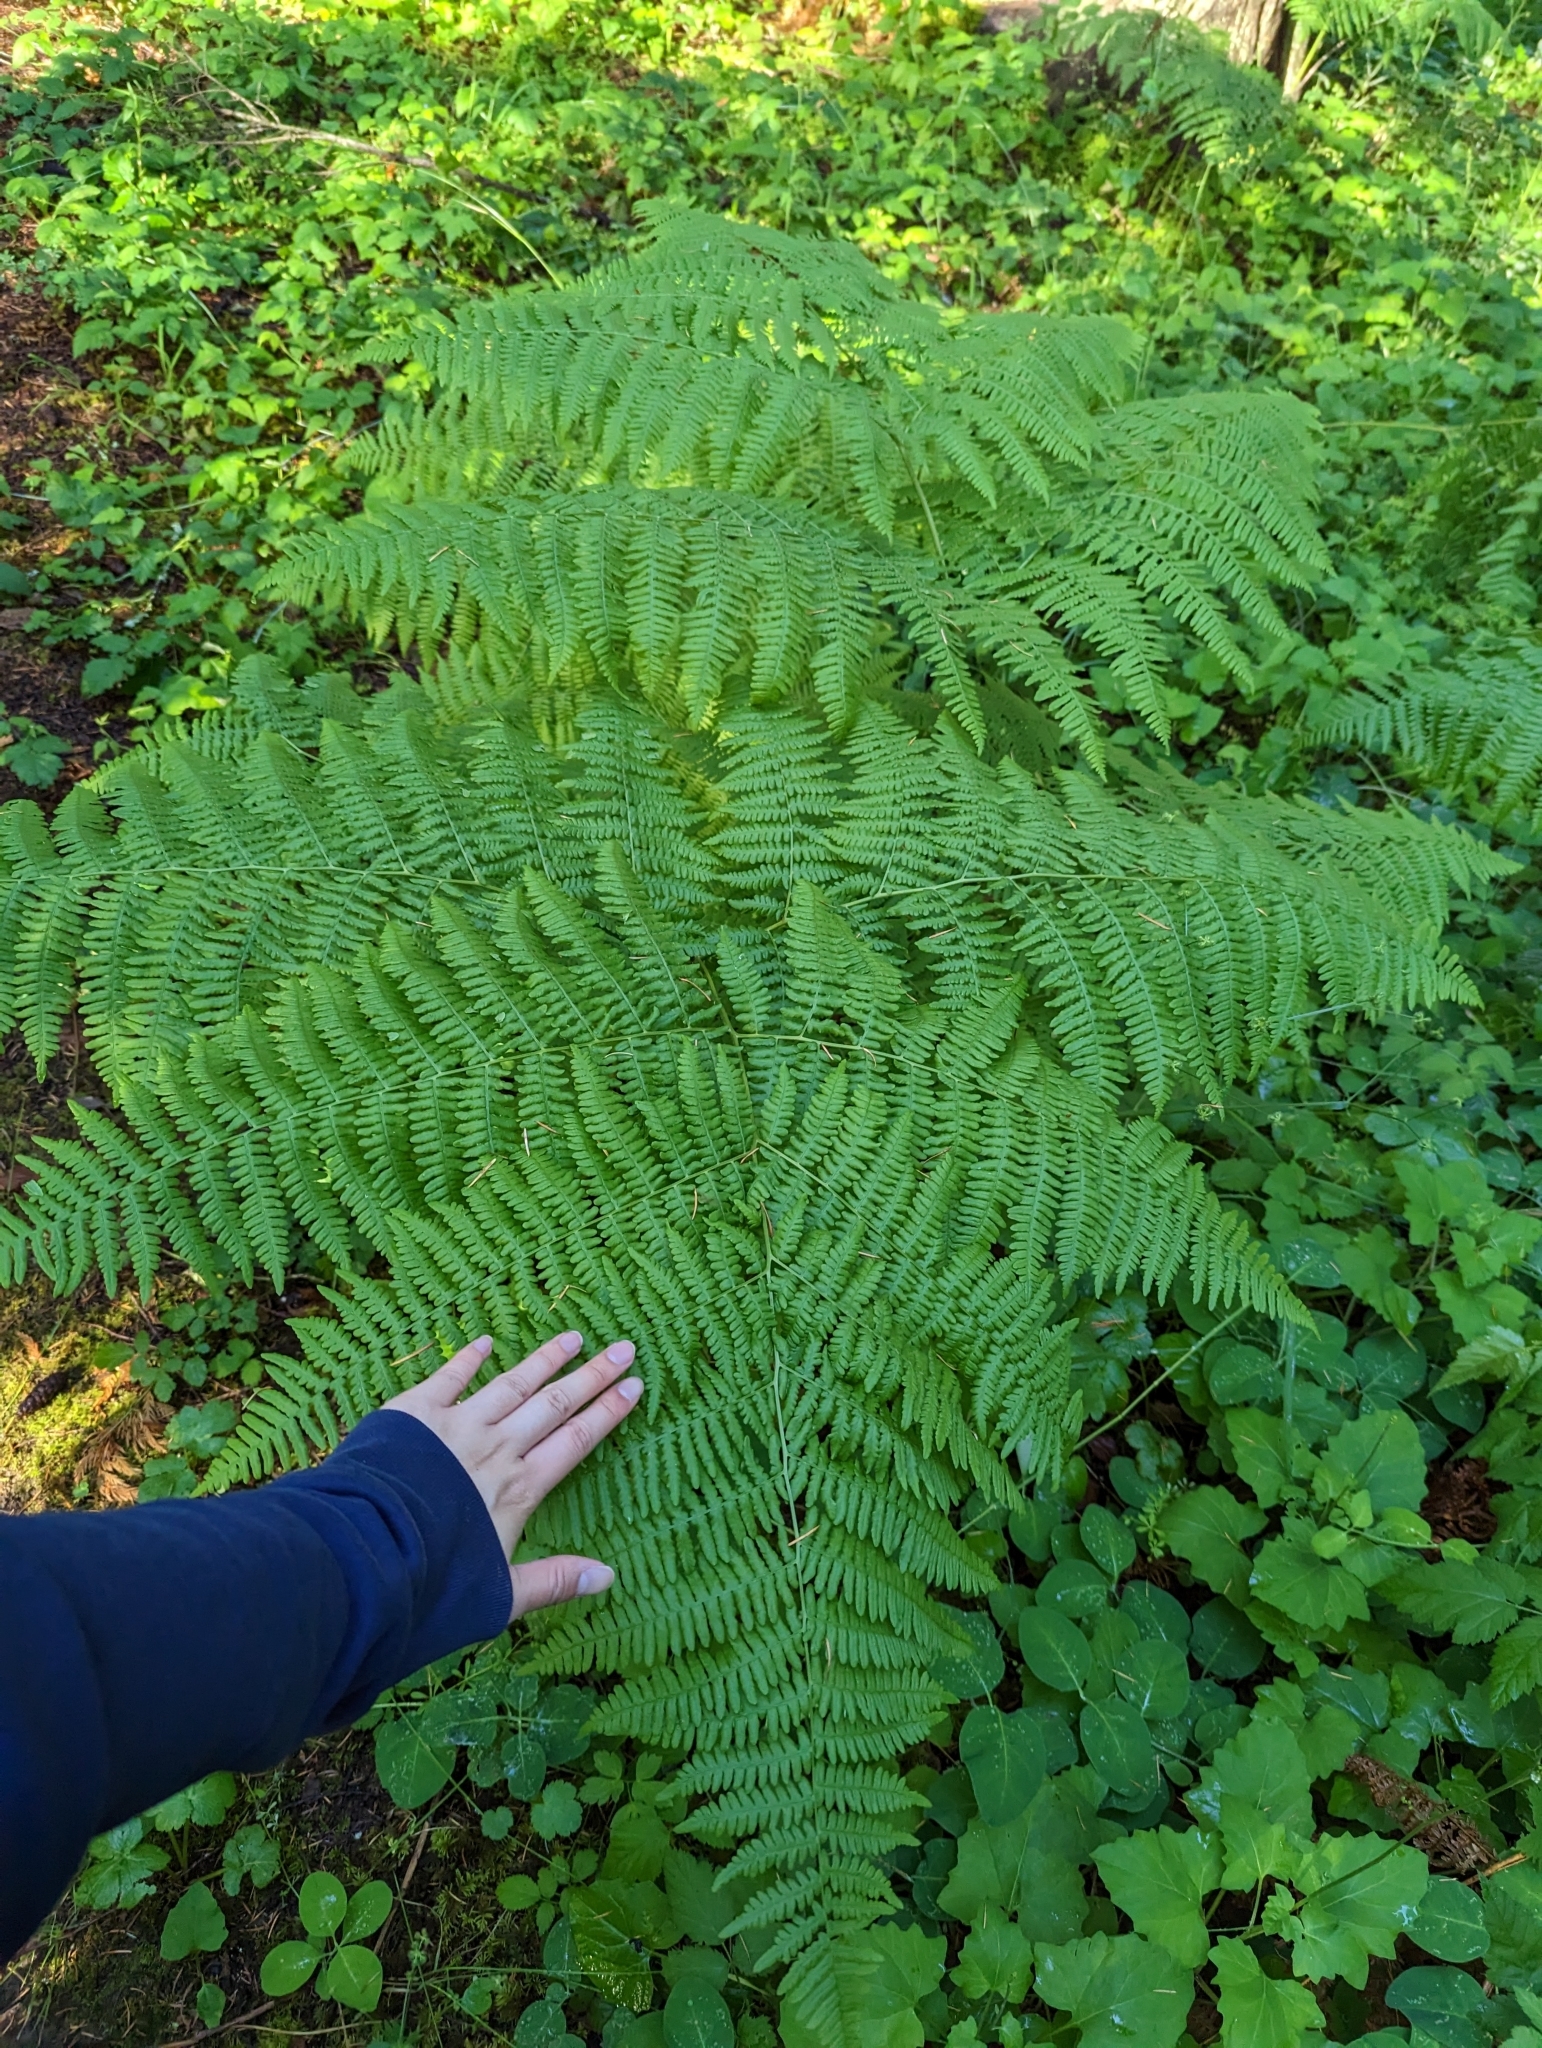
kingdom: Plantae
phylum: Tracheophyta
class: Polypodiopsida
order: Polypodiales
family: Dennstaedtiaceae
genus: Pteridium
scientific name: Pteridium aquilinum
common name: Bracken
